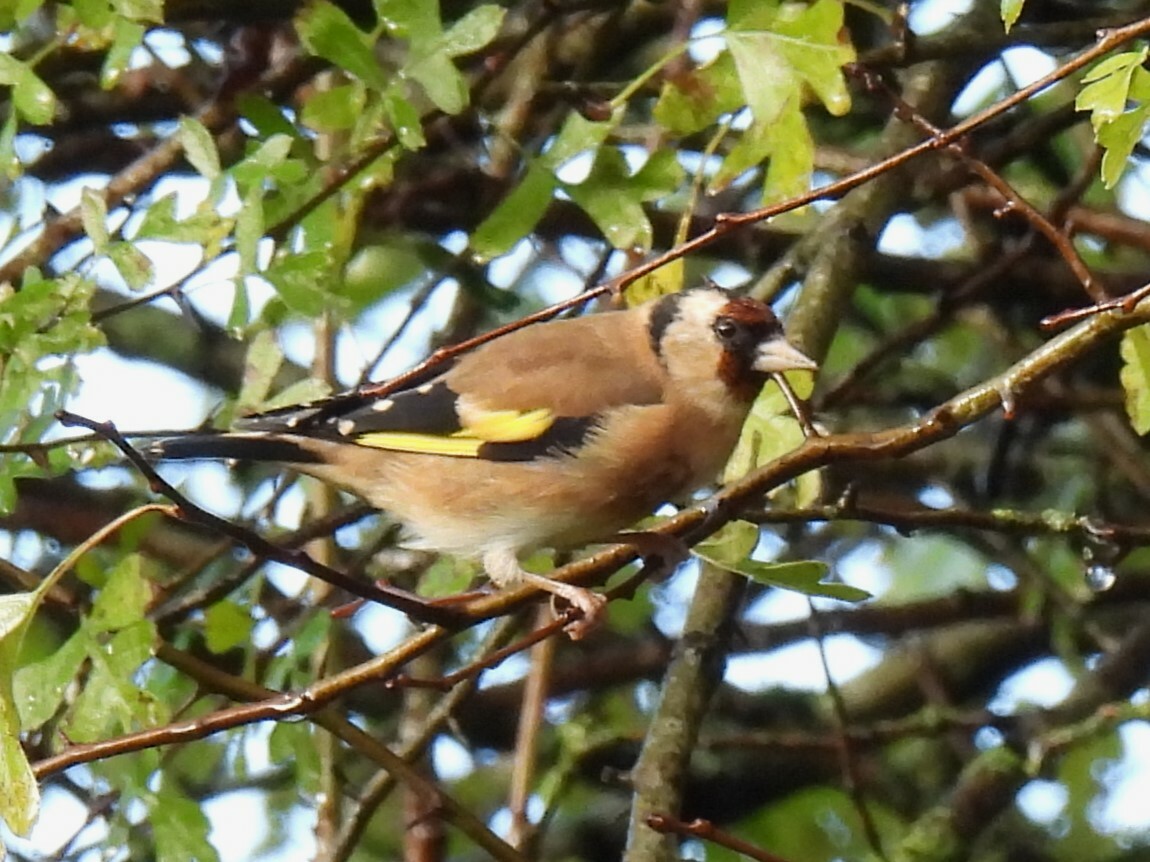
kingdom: Animalia
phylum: Chordata
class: Aves
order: Passeriformes
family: Fringillidae
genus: Carduelis
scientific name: Carduelis carduelis
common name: European goldfinch
